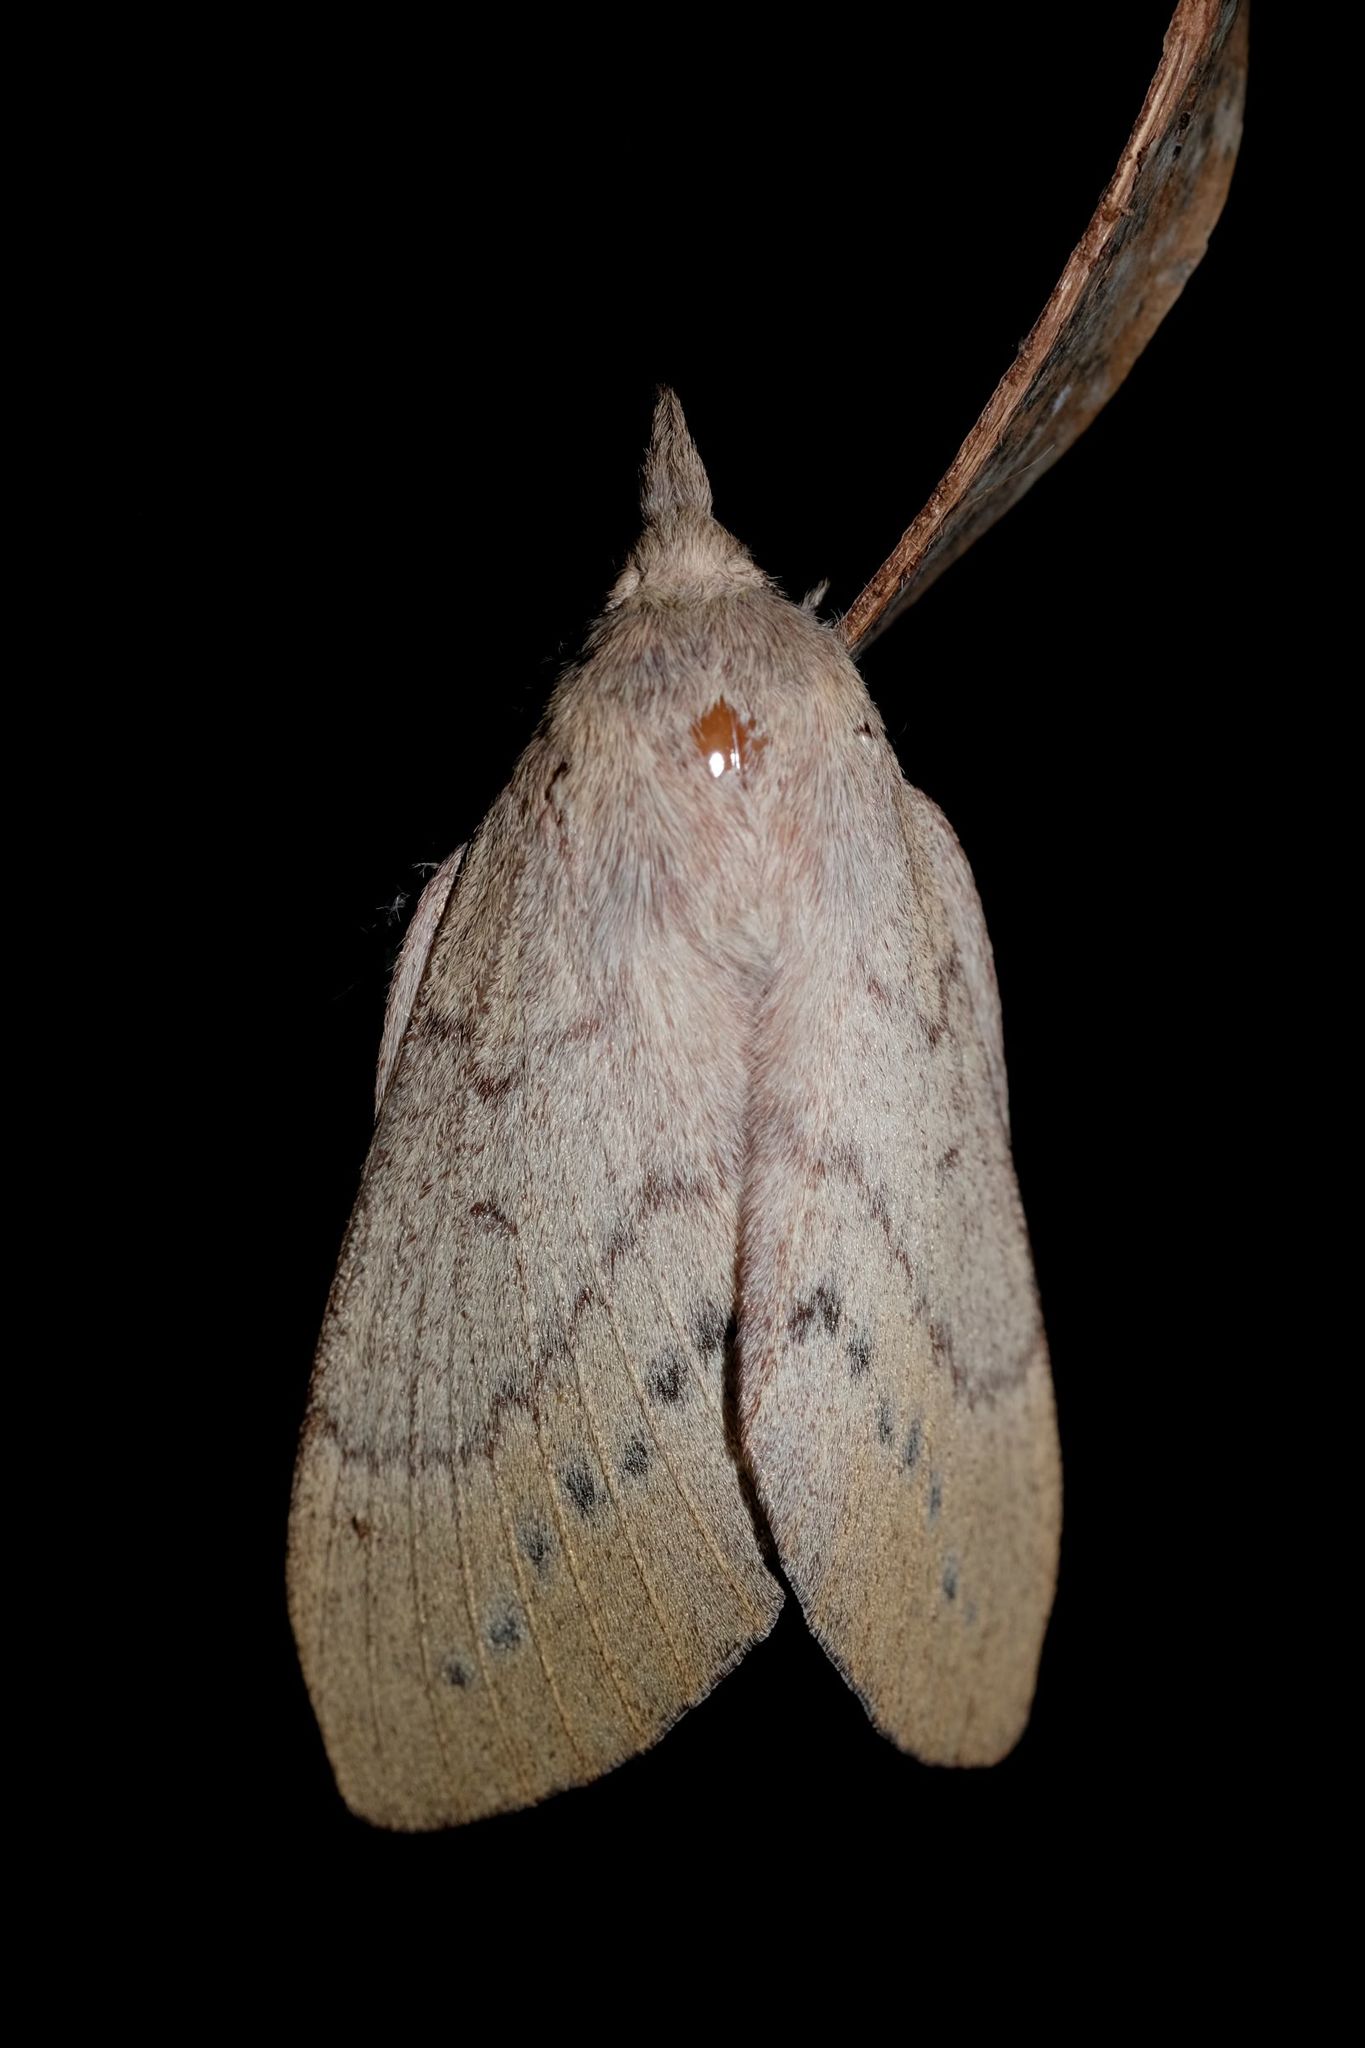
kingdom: Animalia
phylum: Arthropoda
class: Insecta
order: Lepidoptera
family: Lasiocampidae
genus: Entometa
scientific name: Entometa guttularis
